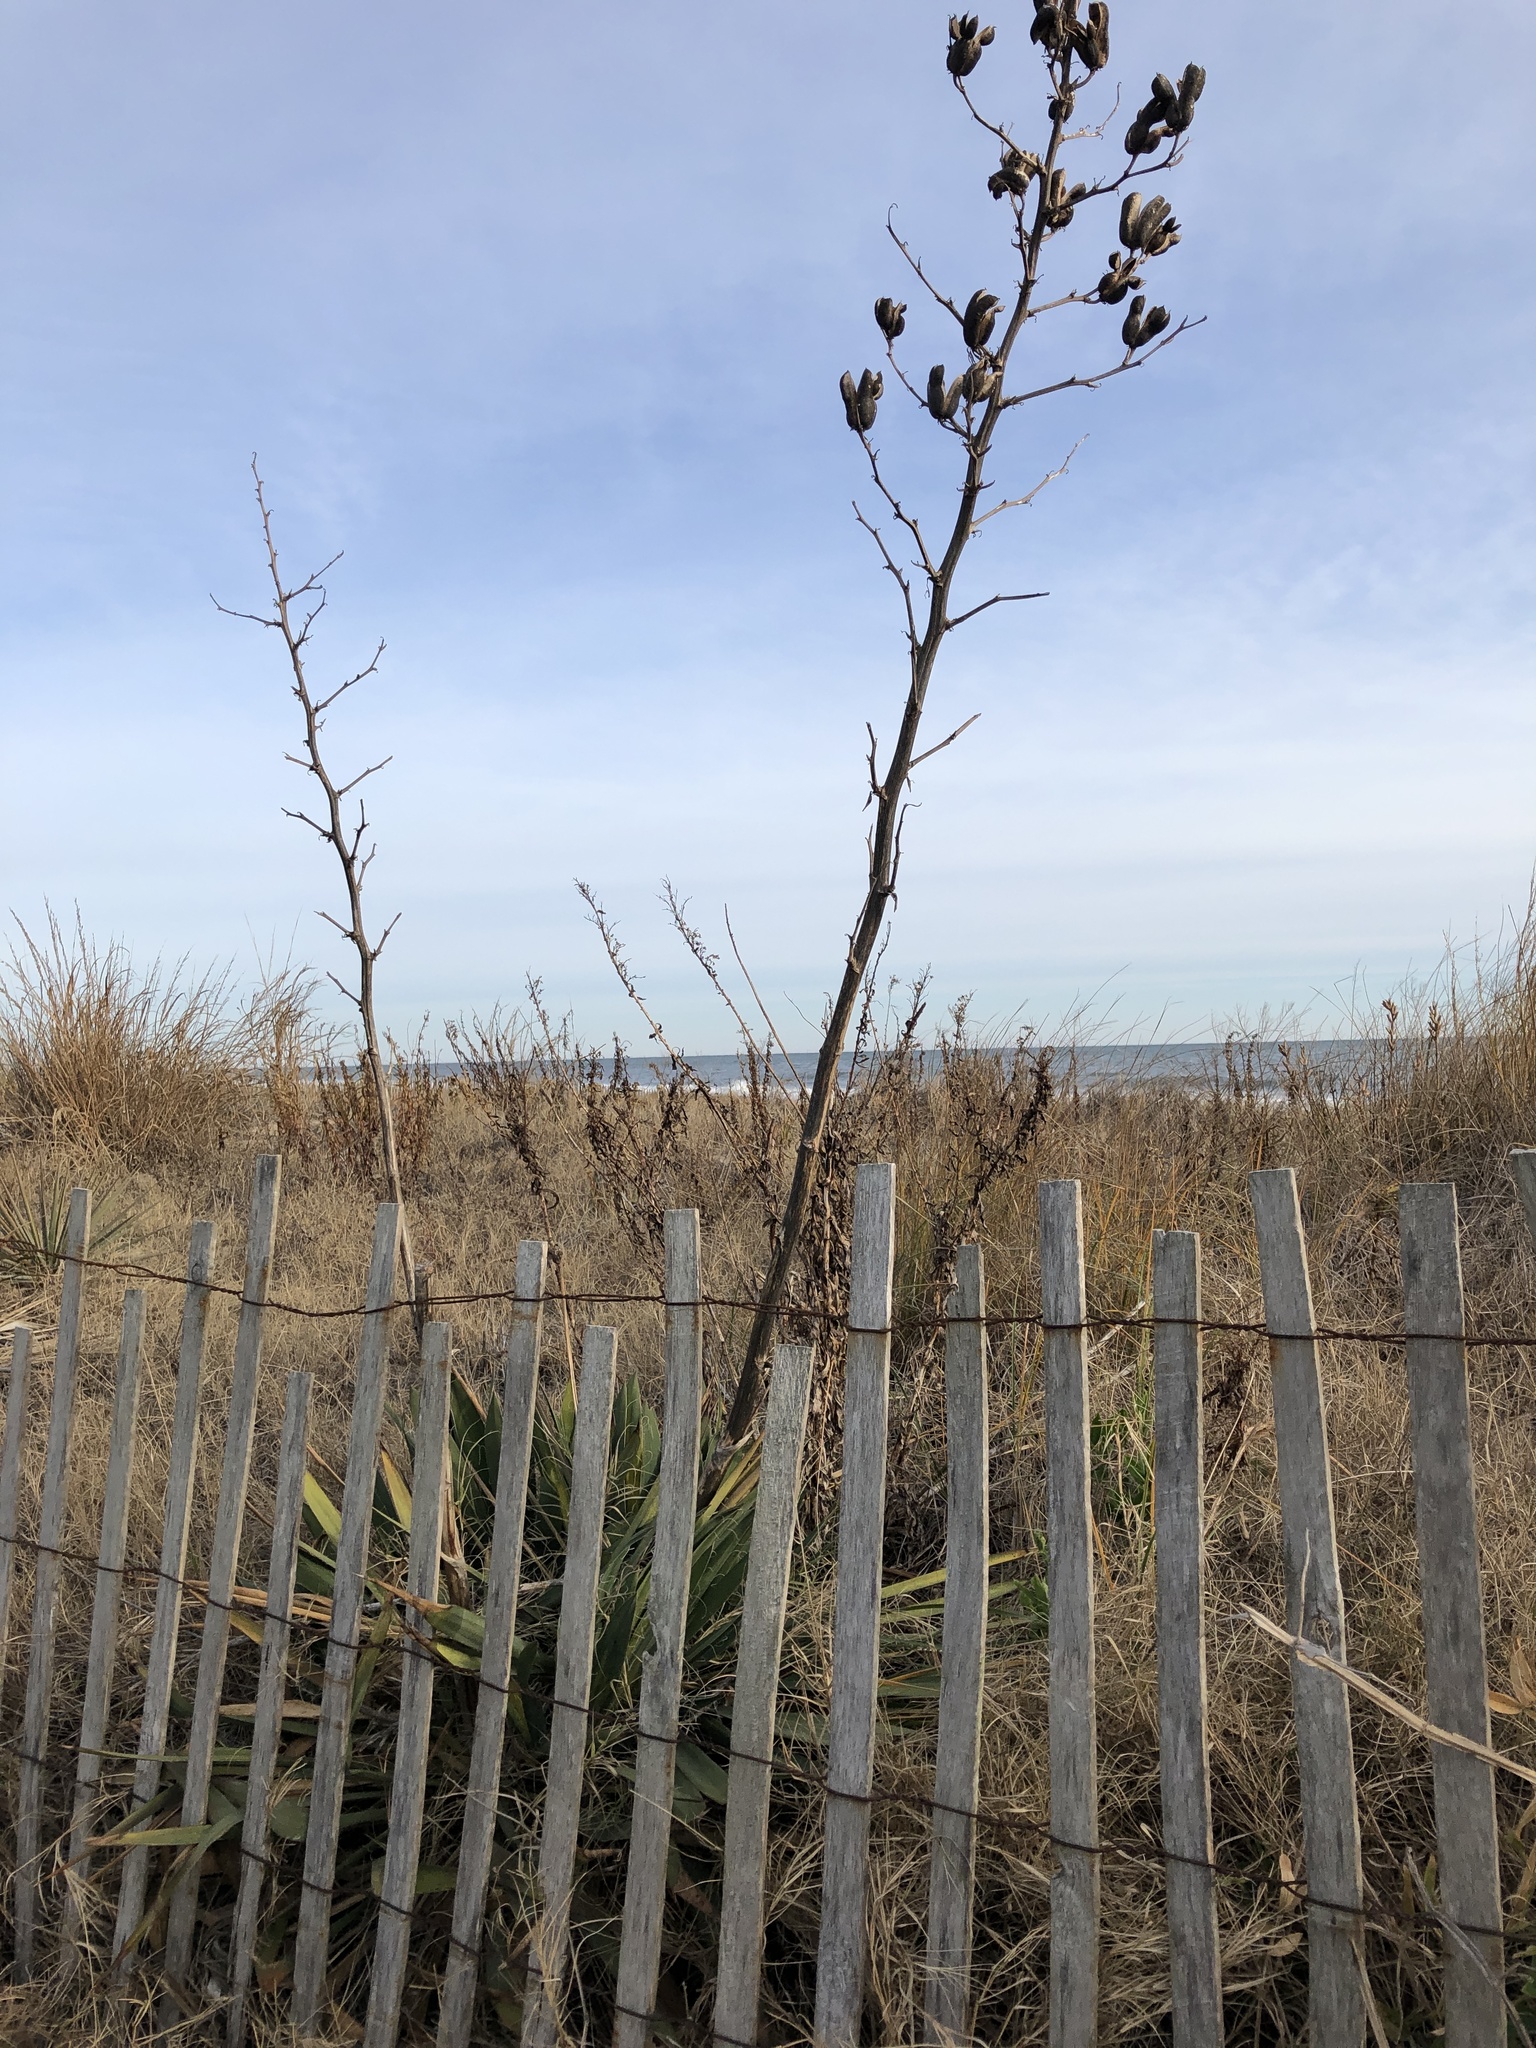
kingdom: Plantae
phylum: Tracheophyta
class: Liliopsida
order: Asparagales
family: Asparagaceae
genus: Yucca
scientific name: Yucca filamentosa
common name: Adam's-needle
